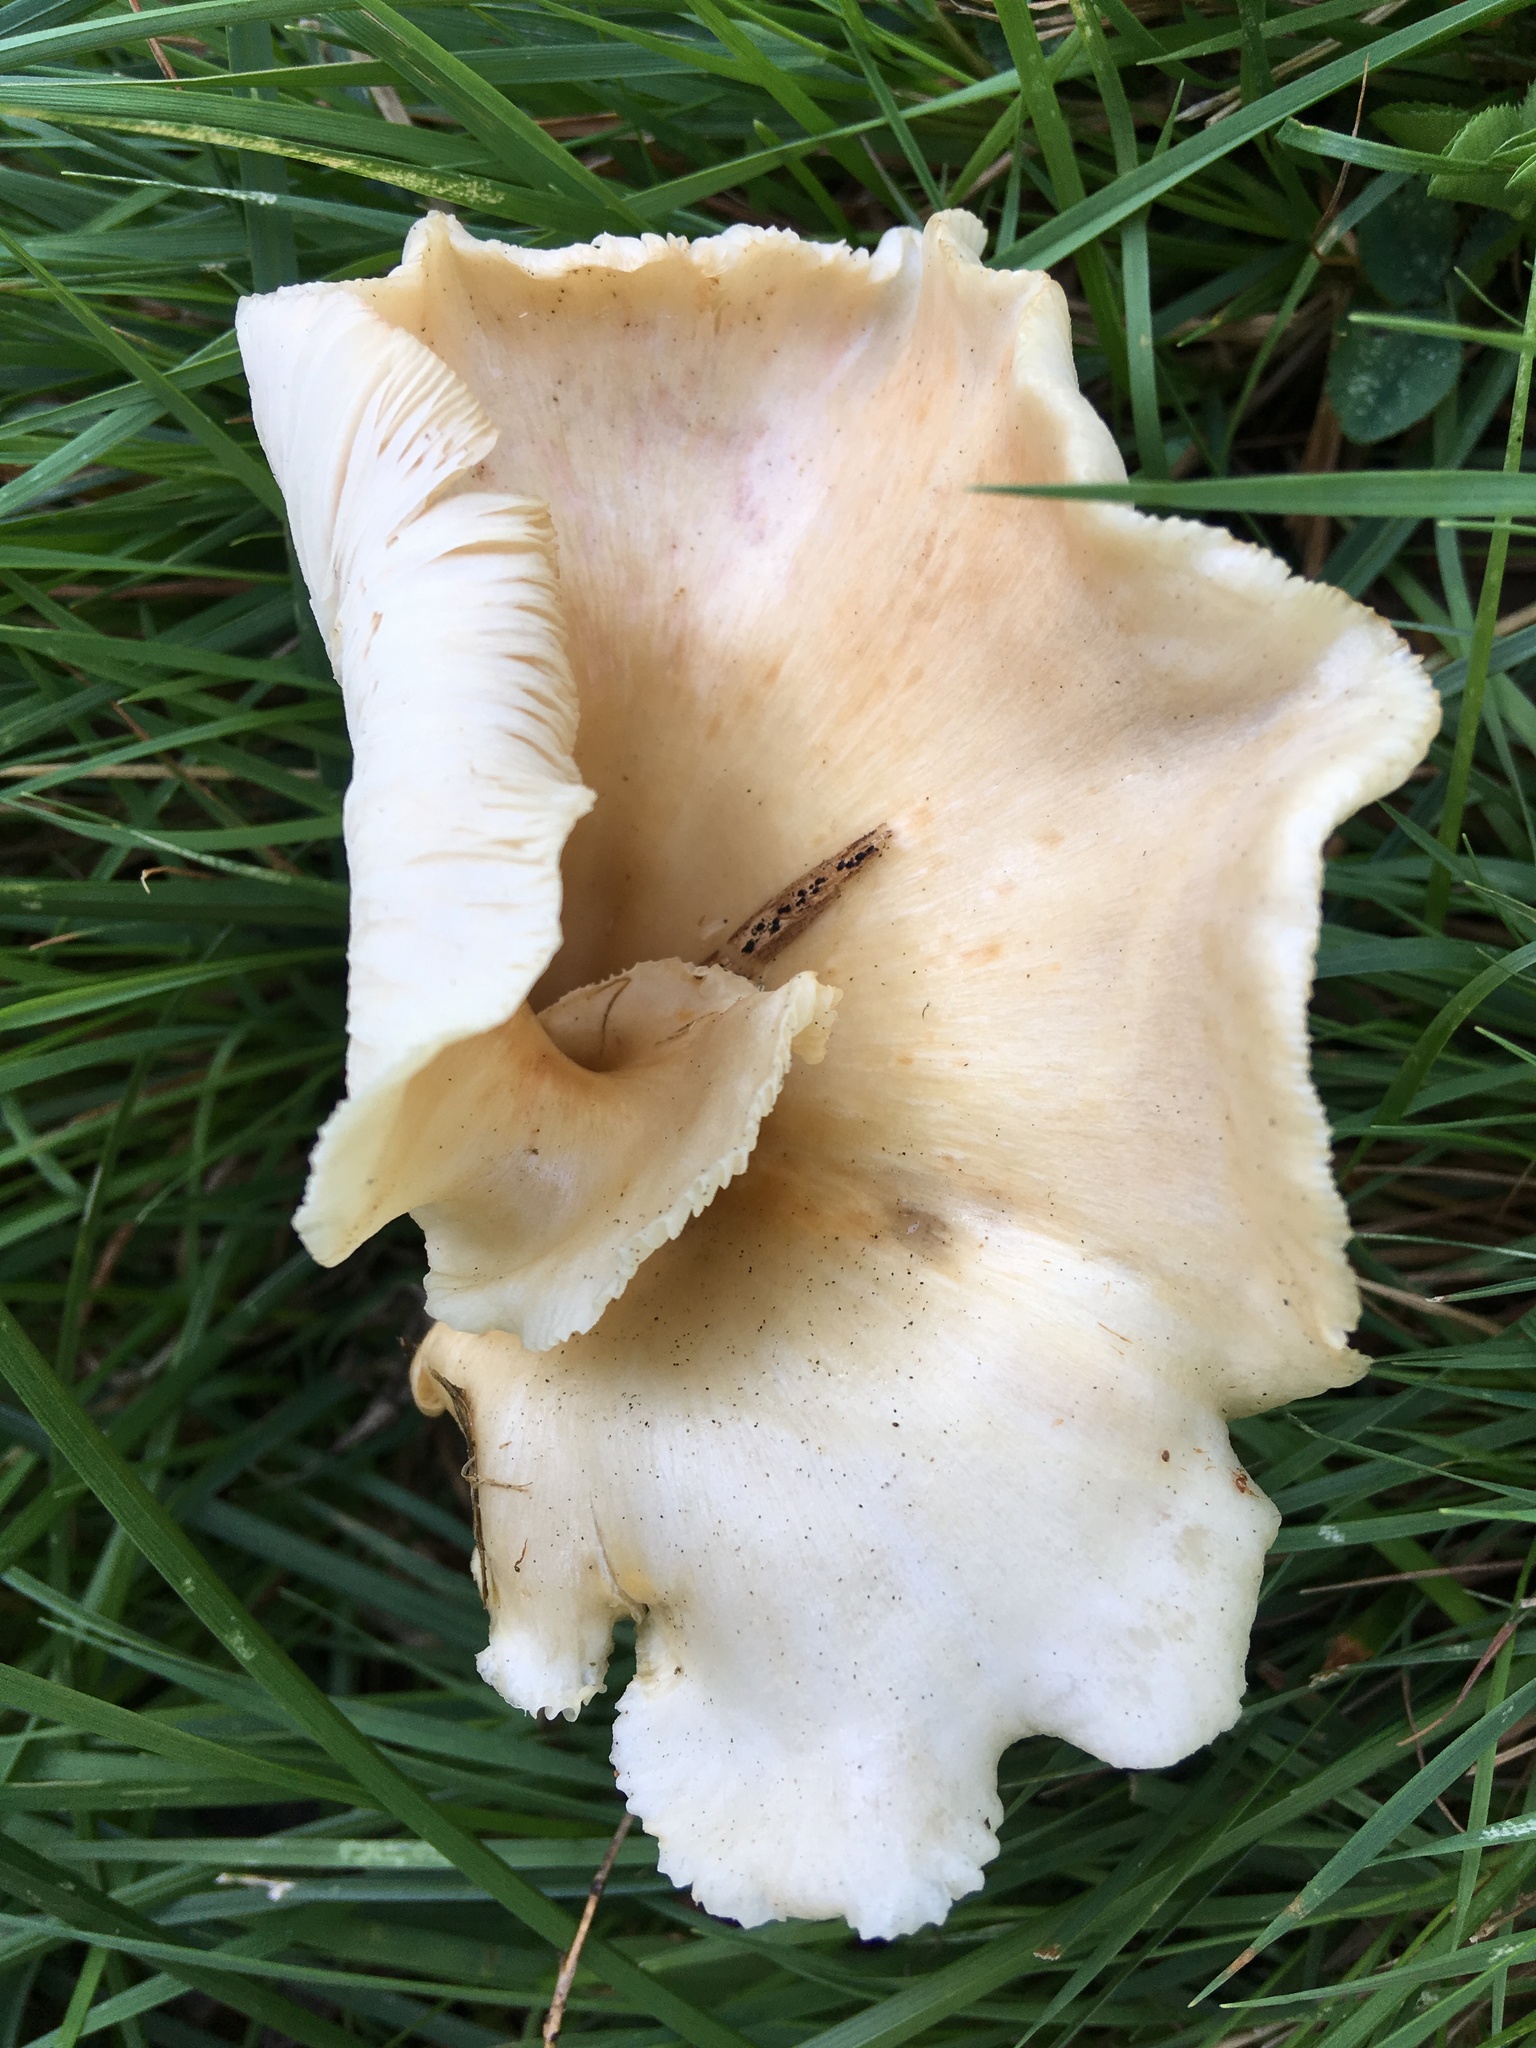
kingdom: Fungi
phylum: Basidiomycota
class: Agaricomycetes
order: Agaricales
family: Pleurotaceae
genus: Hohenbuehelia
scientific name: Hohenbuehelia petaloides
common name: Shoehorn oyster
